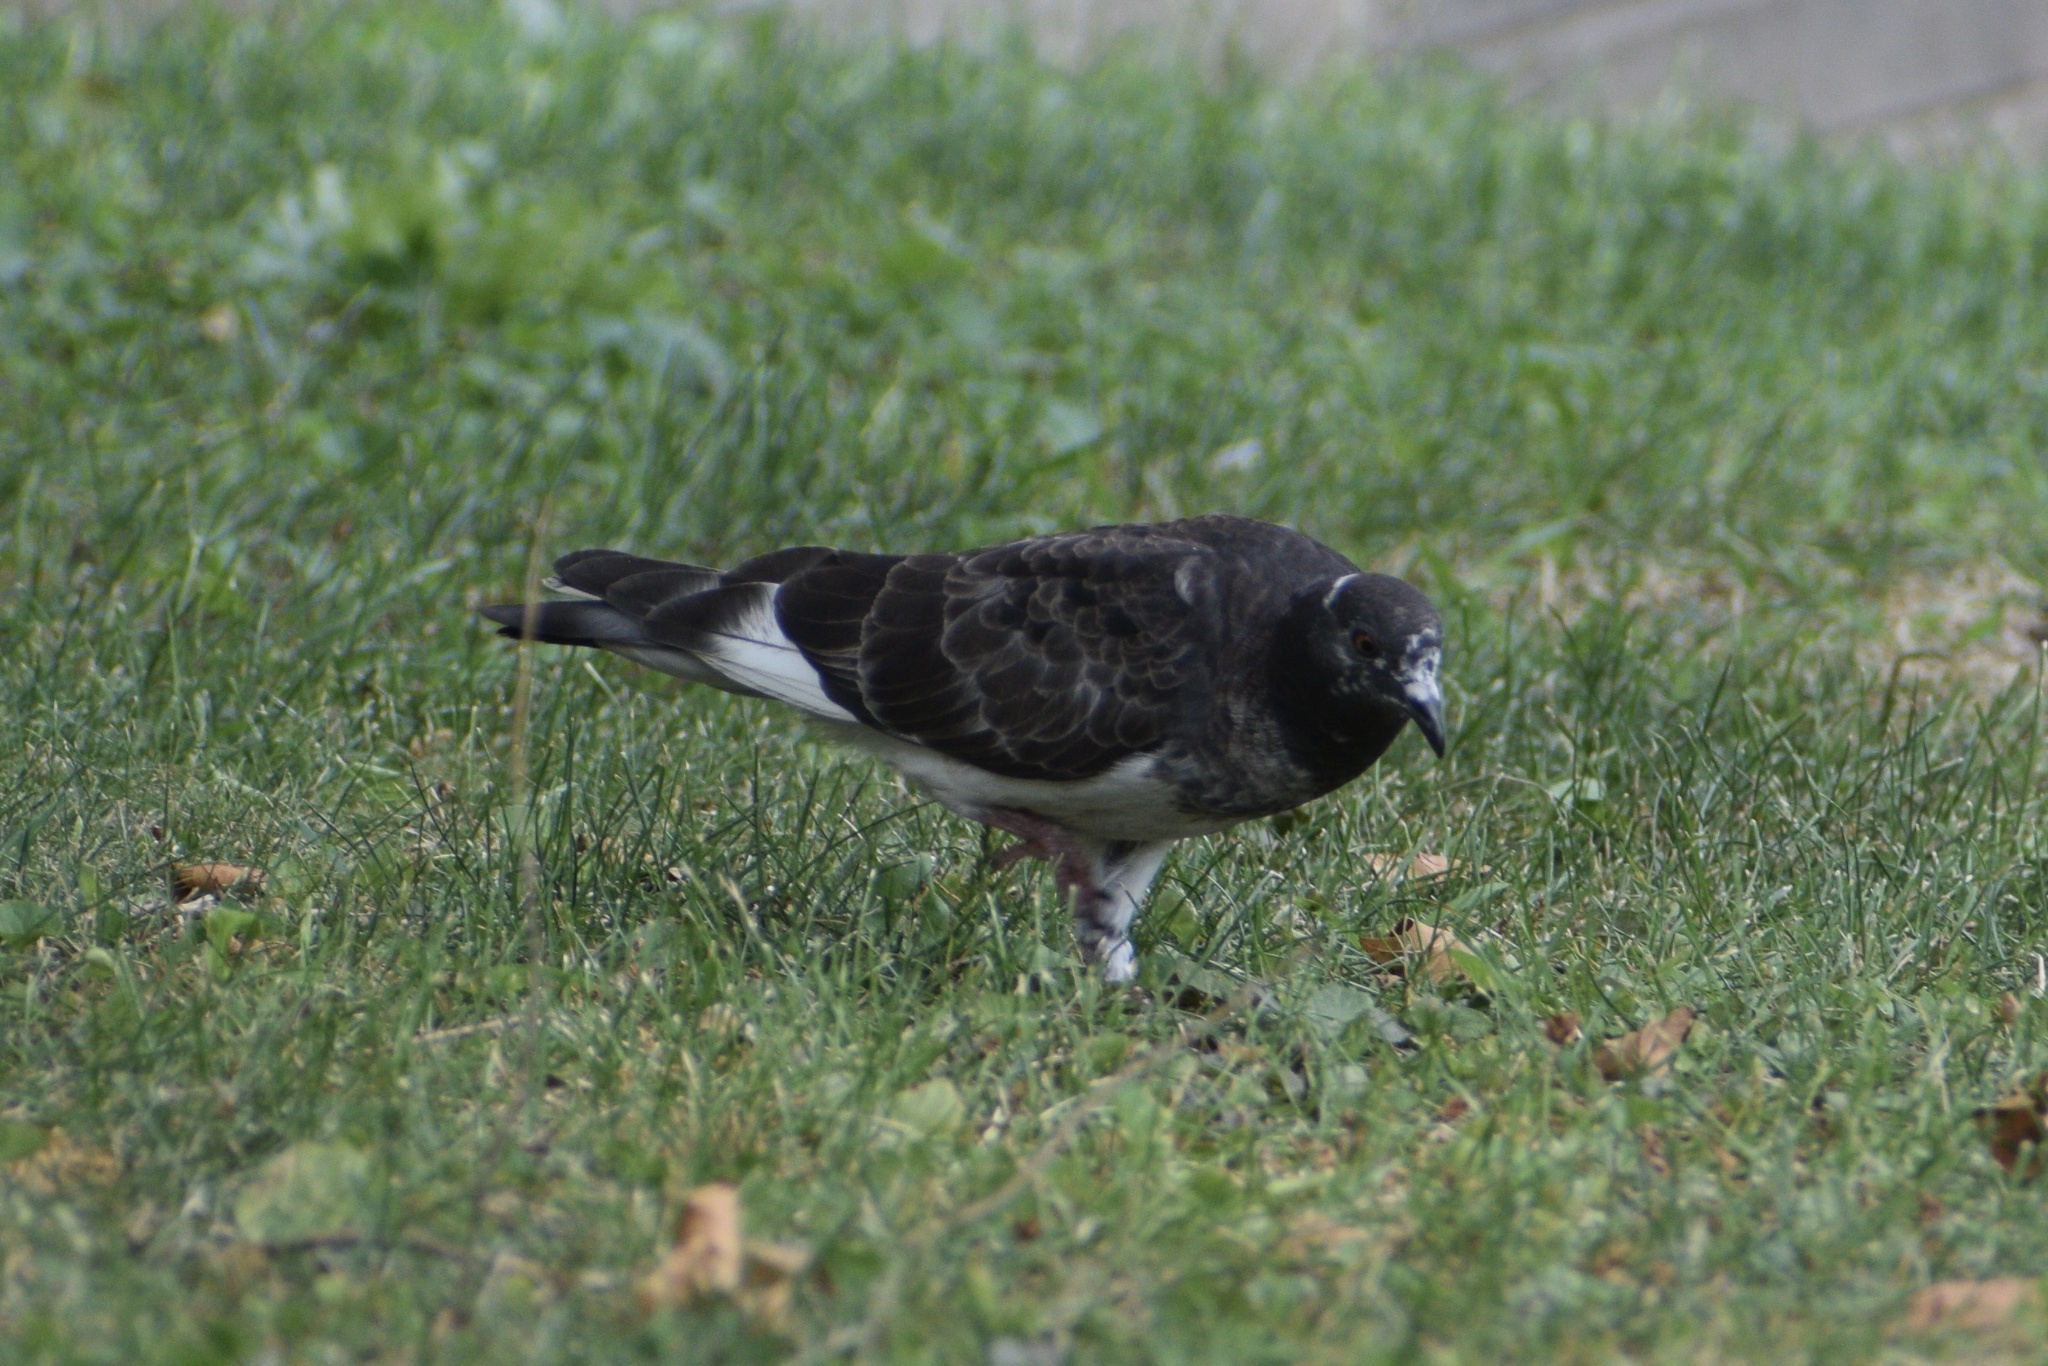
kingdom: Animalia
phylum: Chordata
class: Aves
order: Columbiformes
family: Columbidae
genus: Columba
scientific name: Columba livia
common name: Rock pigeon
